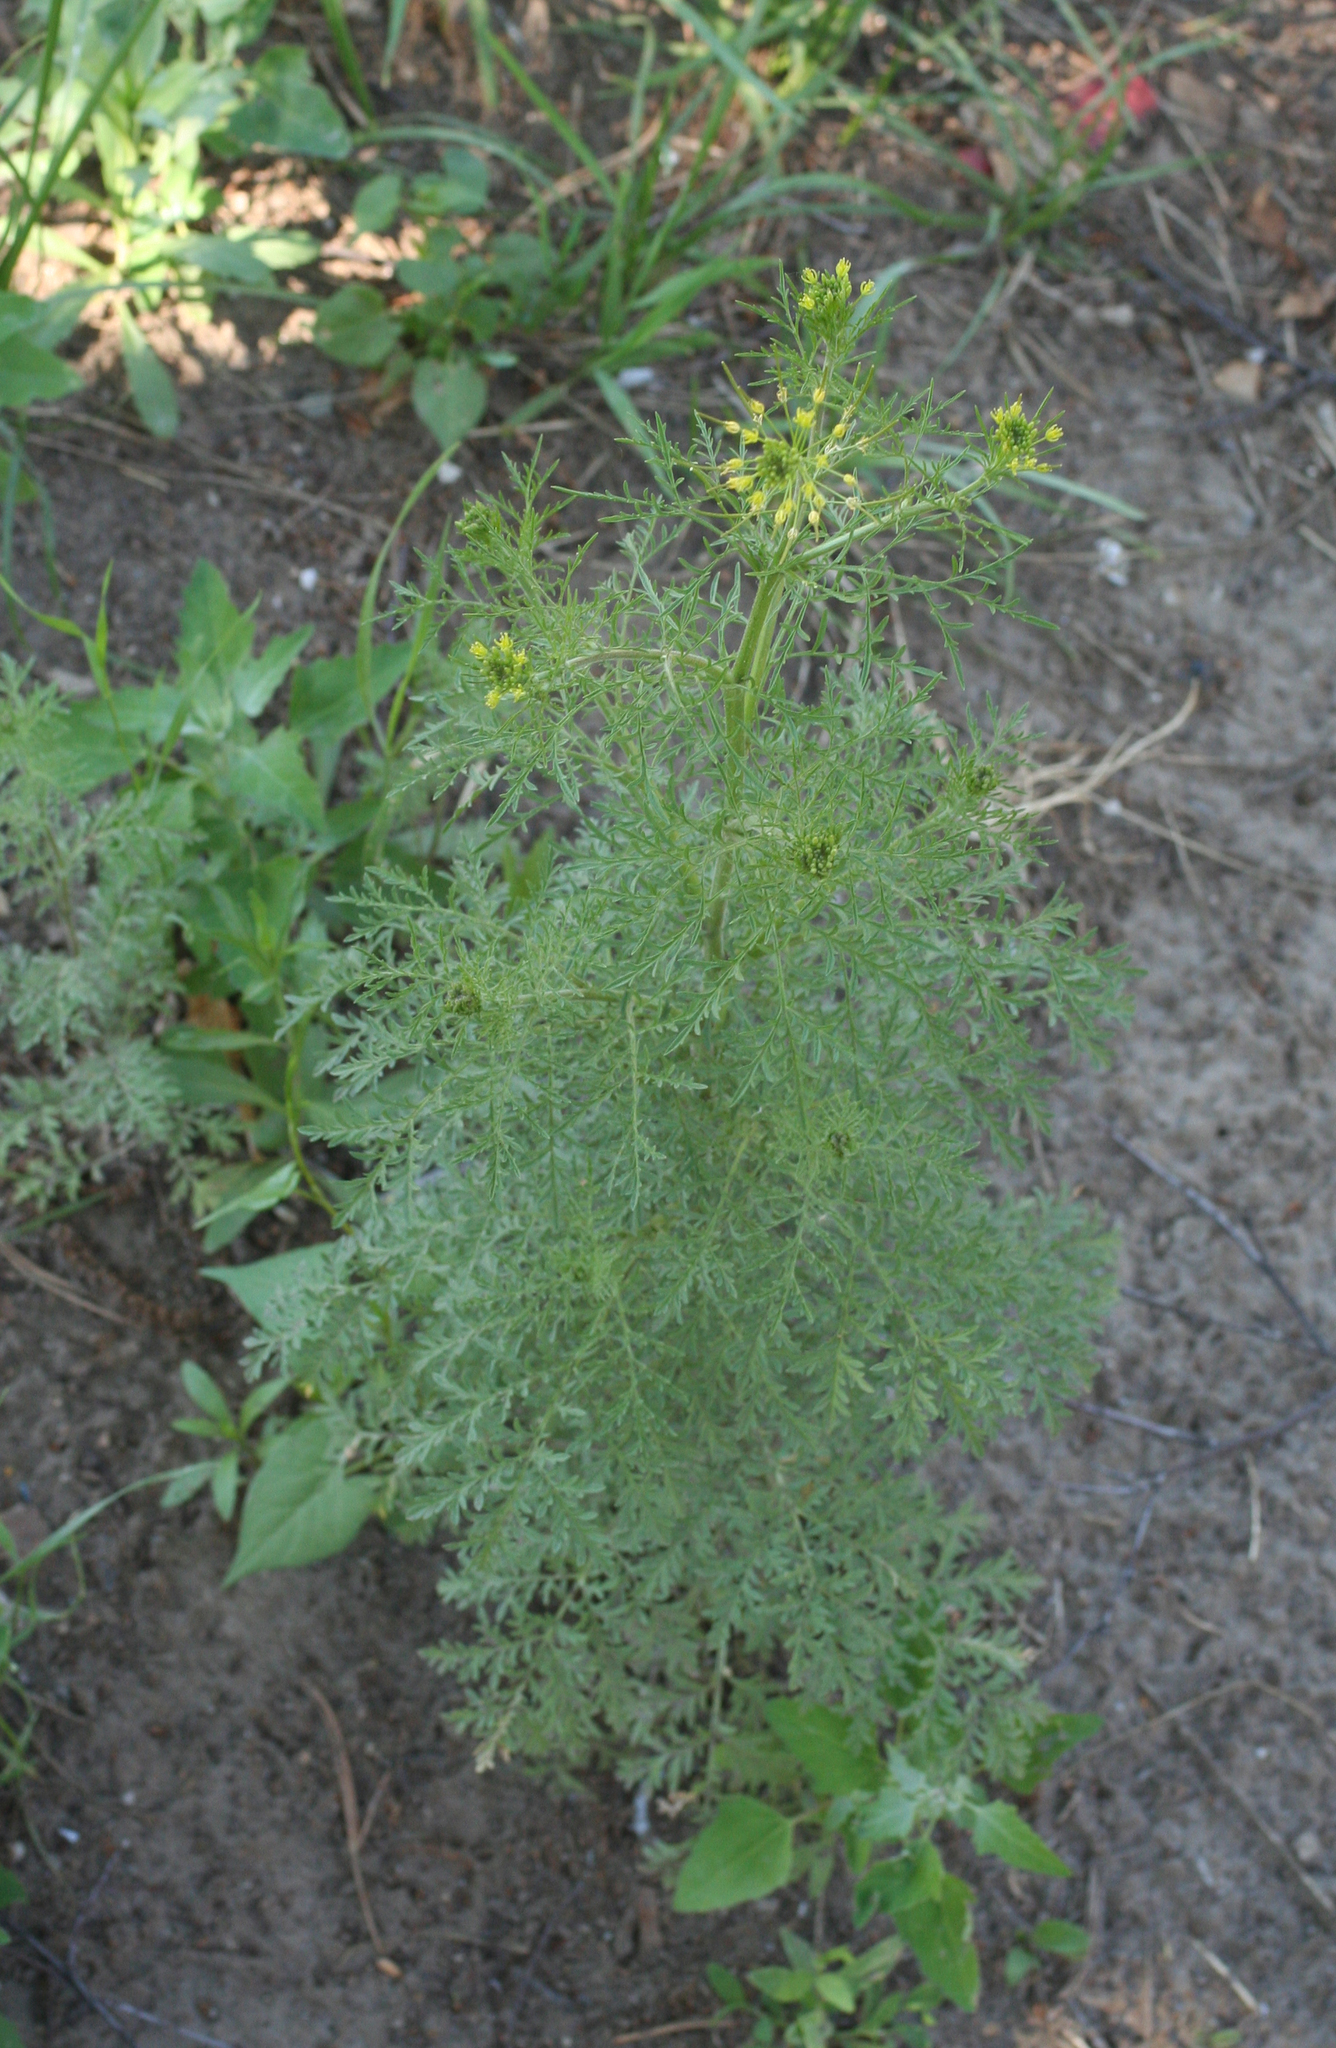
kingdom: Plantae
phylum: Tracheophyta
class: Magnoliopsida
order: Brassicales
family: Brassicaceae
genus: Descurainia
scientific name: Descurainia sophia
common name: Flixweed
